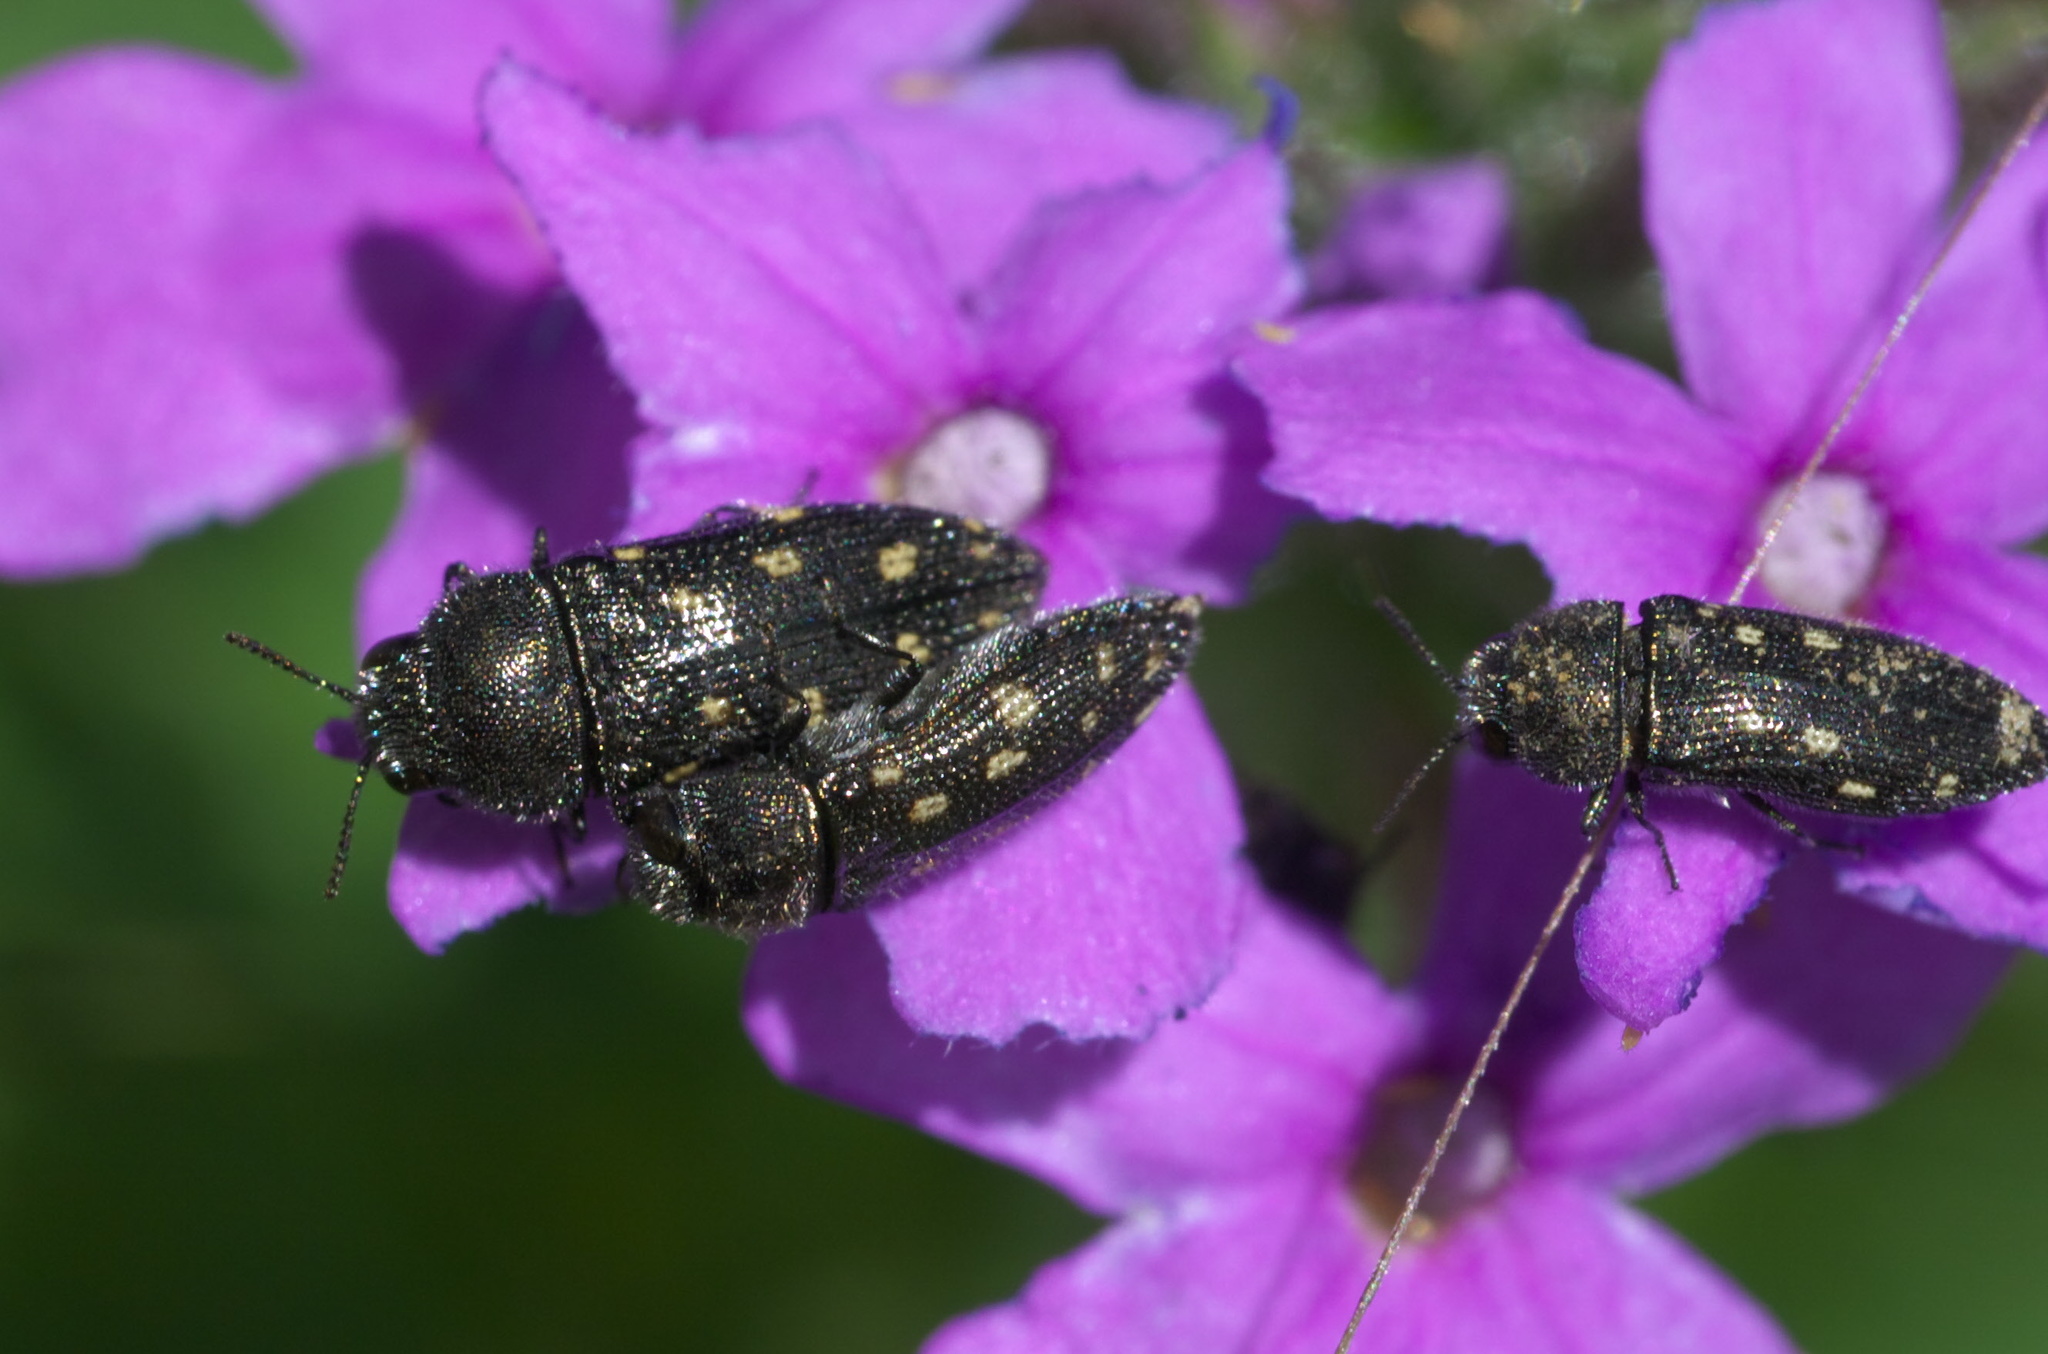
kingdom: Animalia
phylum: Arthropoda
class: Insecta
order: Coleoptera
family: Buprestidae
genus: Acmaeodera
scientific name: Acmaeodera tubulus
